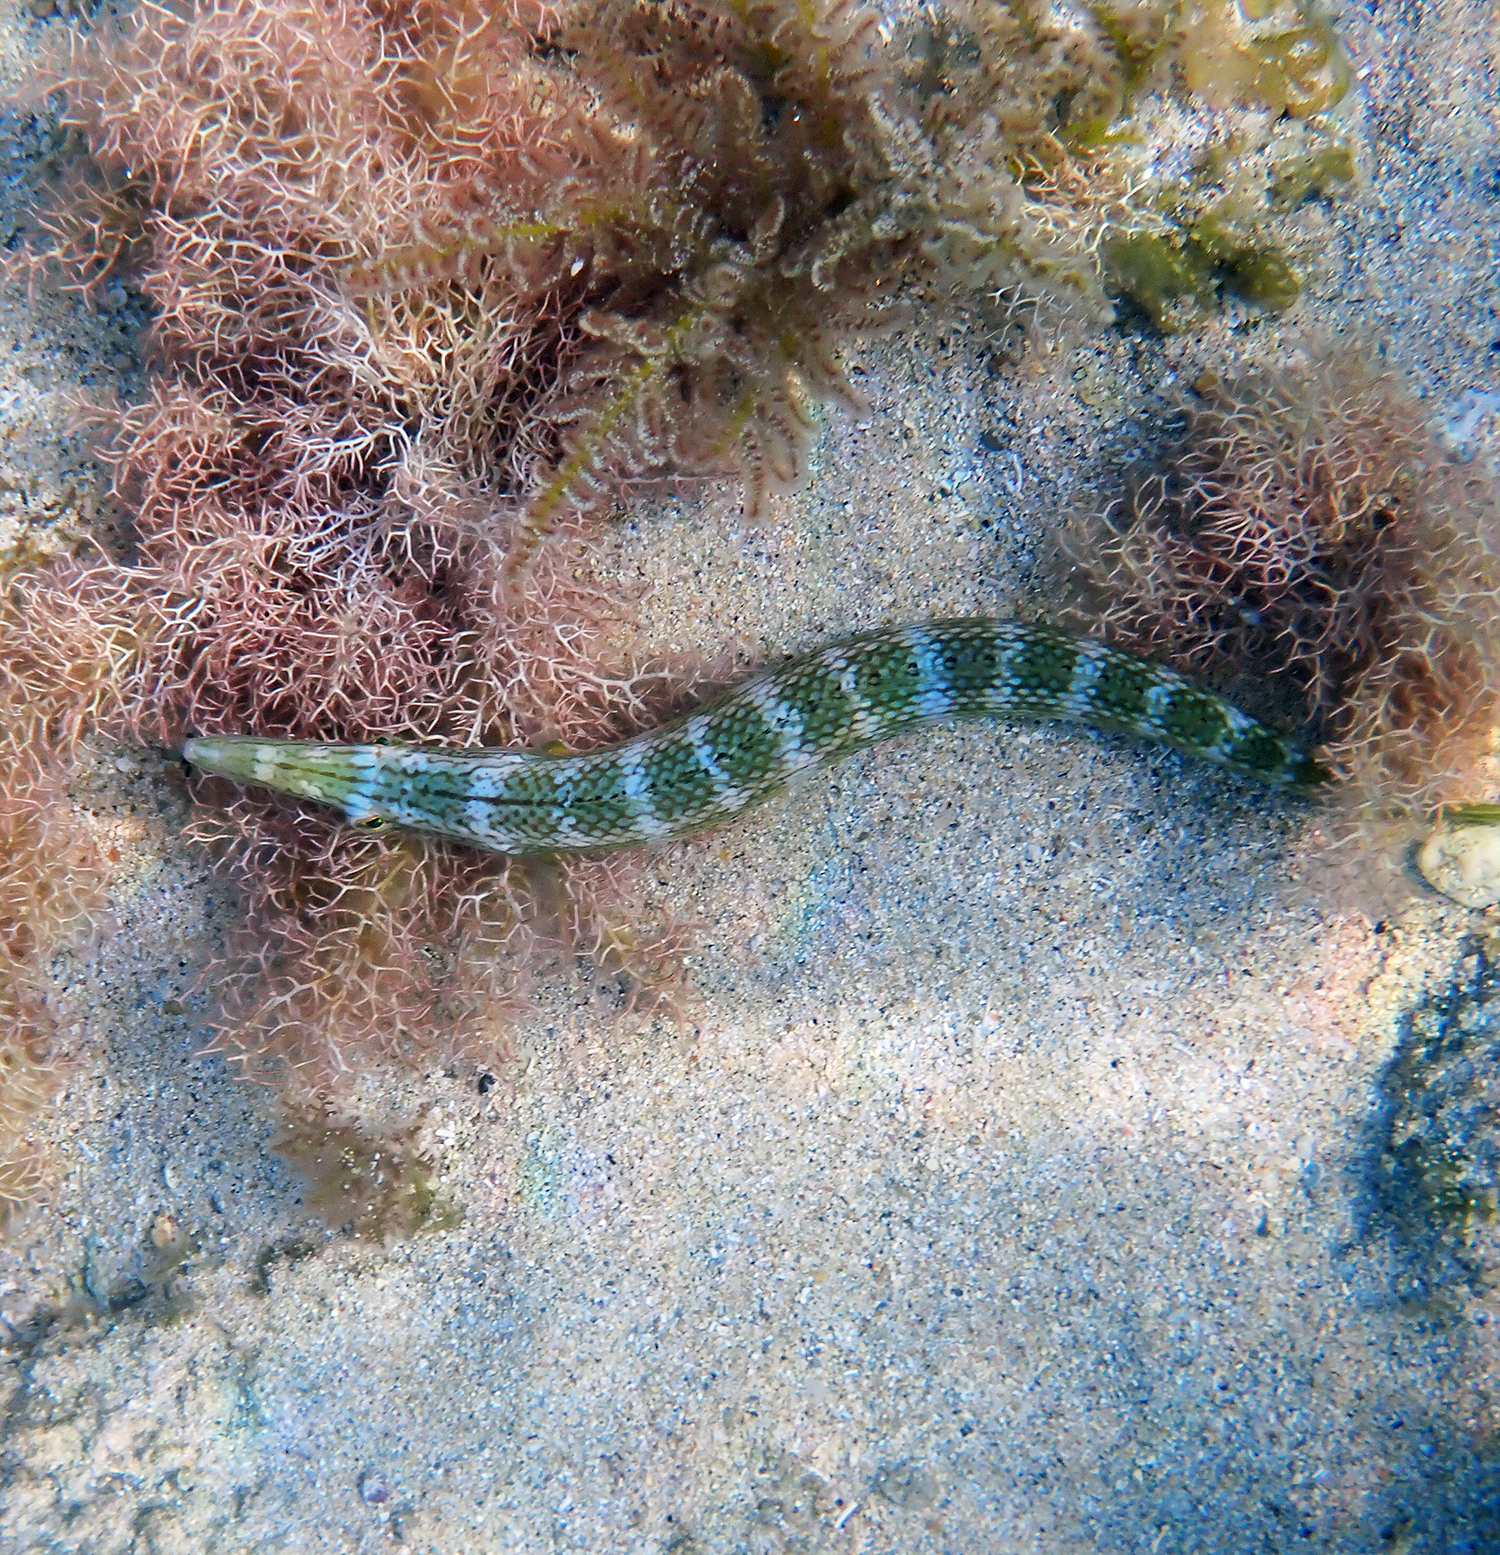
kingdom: Animalia
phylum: Chordata
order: Perciformes
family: Labridae
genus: Cheilio
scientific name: Cheilio inermis
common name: Cigar wrasse
